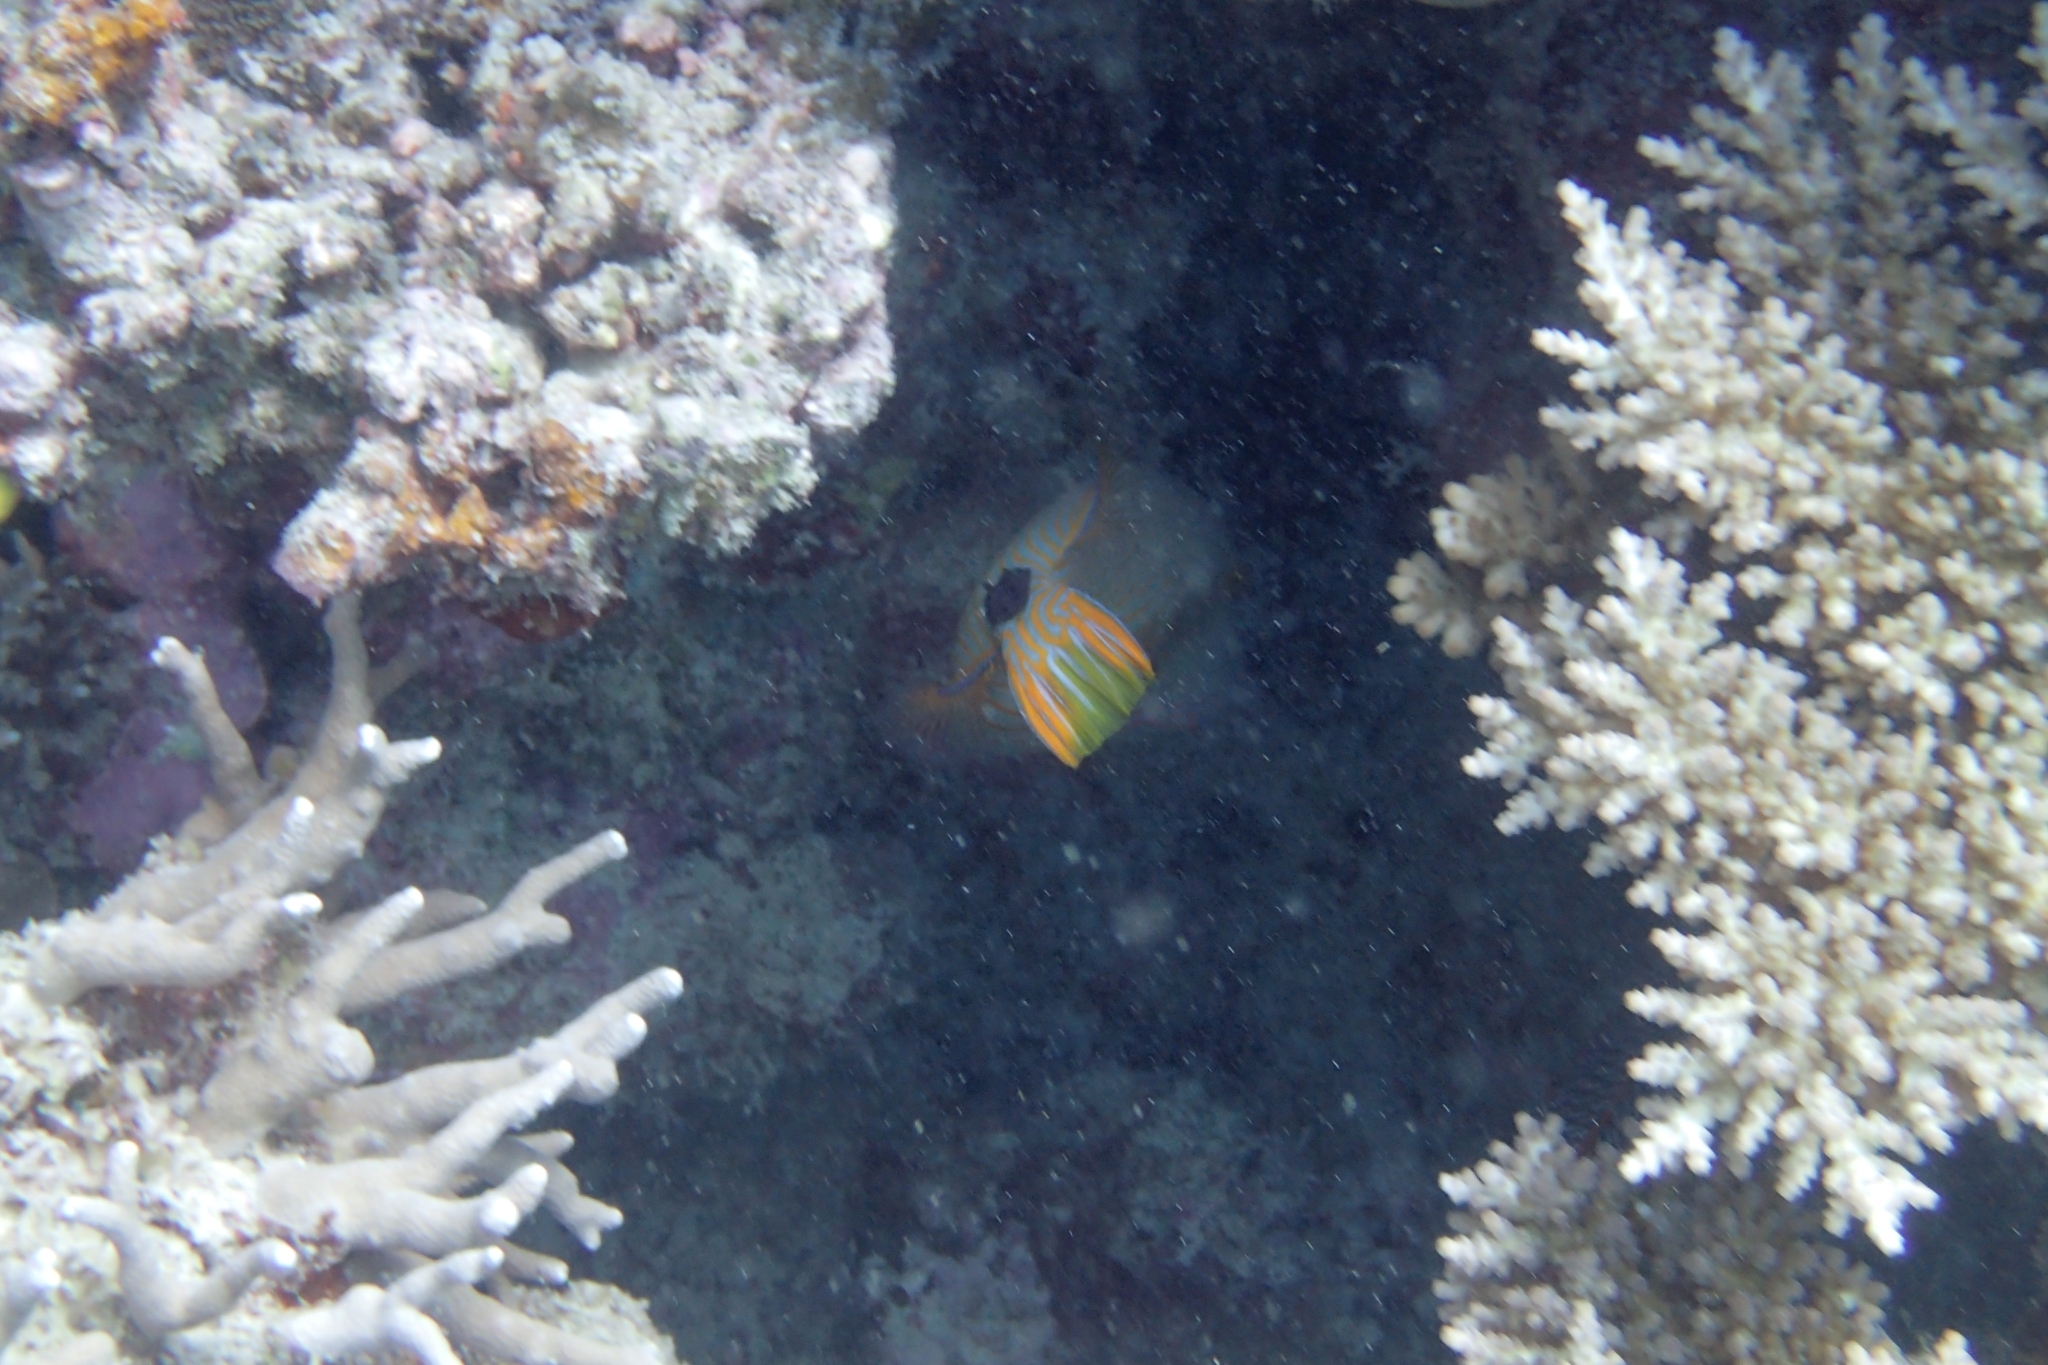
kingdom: Animalia
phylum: Chordata
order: Tetraodontiformes
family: Balistidae
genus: Balistapus
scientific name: Balistapus undulatus
